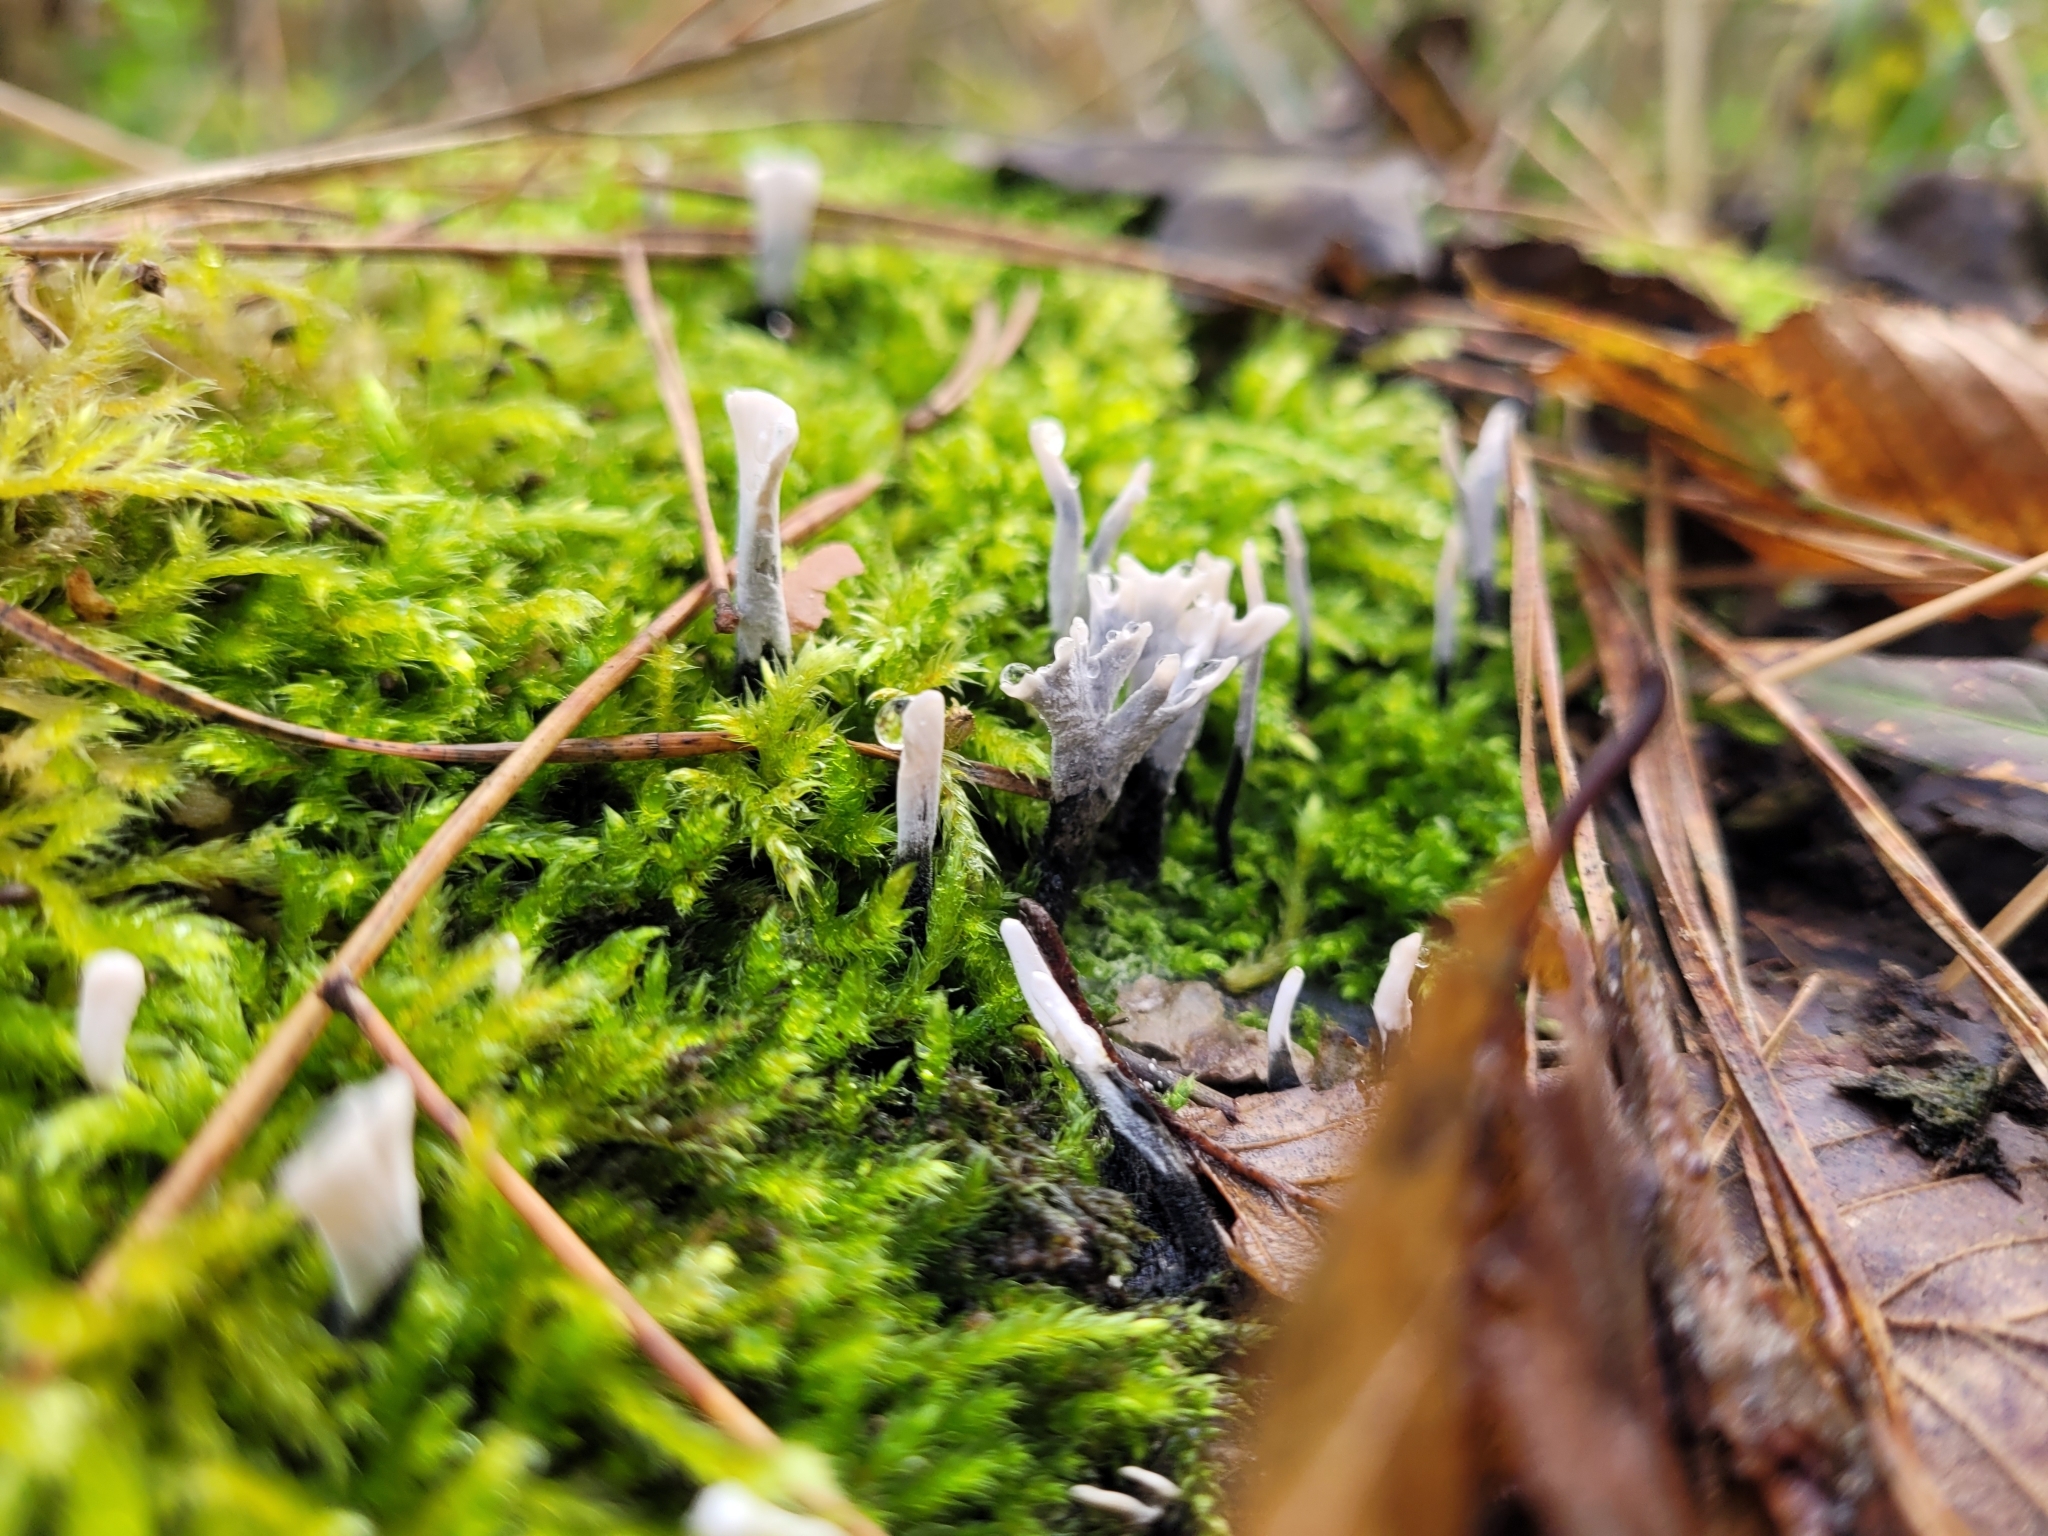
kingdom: Fungi
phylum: Ascomycota
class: Sordariomycetes
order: Xylariales
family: Xylariaceae
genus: Xylaria
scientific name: Xylaria hypoxylon
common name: Candle-snuff fungus
